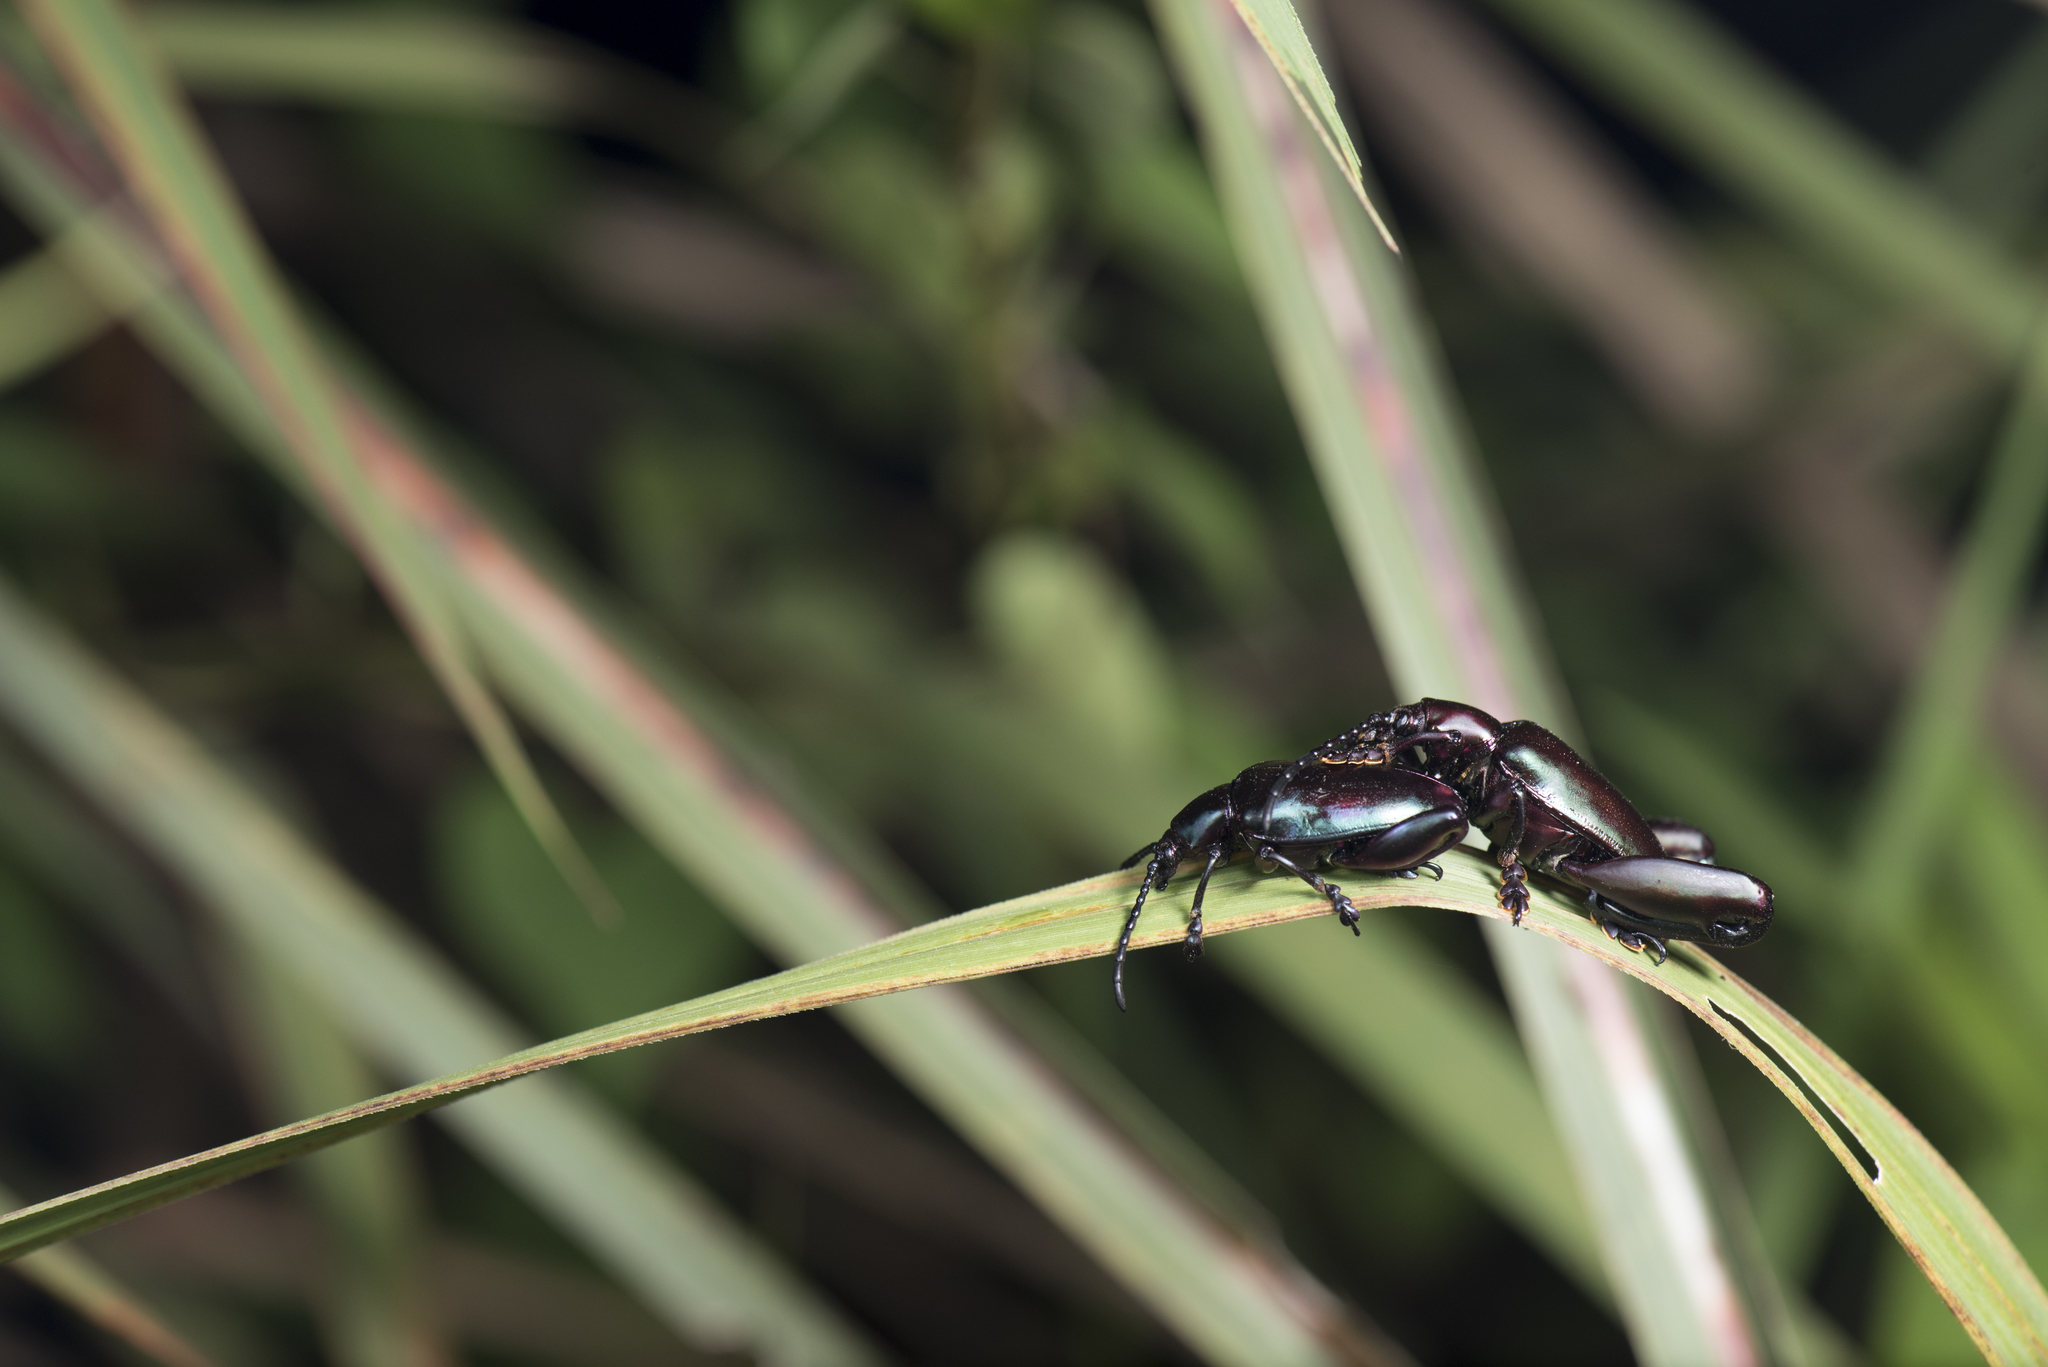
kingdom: Animalia
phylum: Arthropoda
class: Insecta
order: Coleoptera
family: Chrysomelidae
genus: Sagra
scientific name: Sagra femorata
